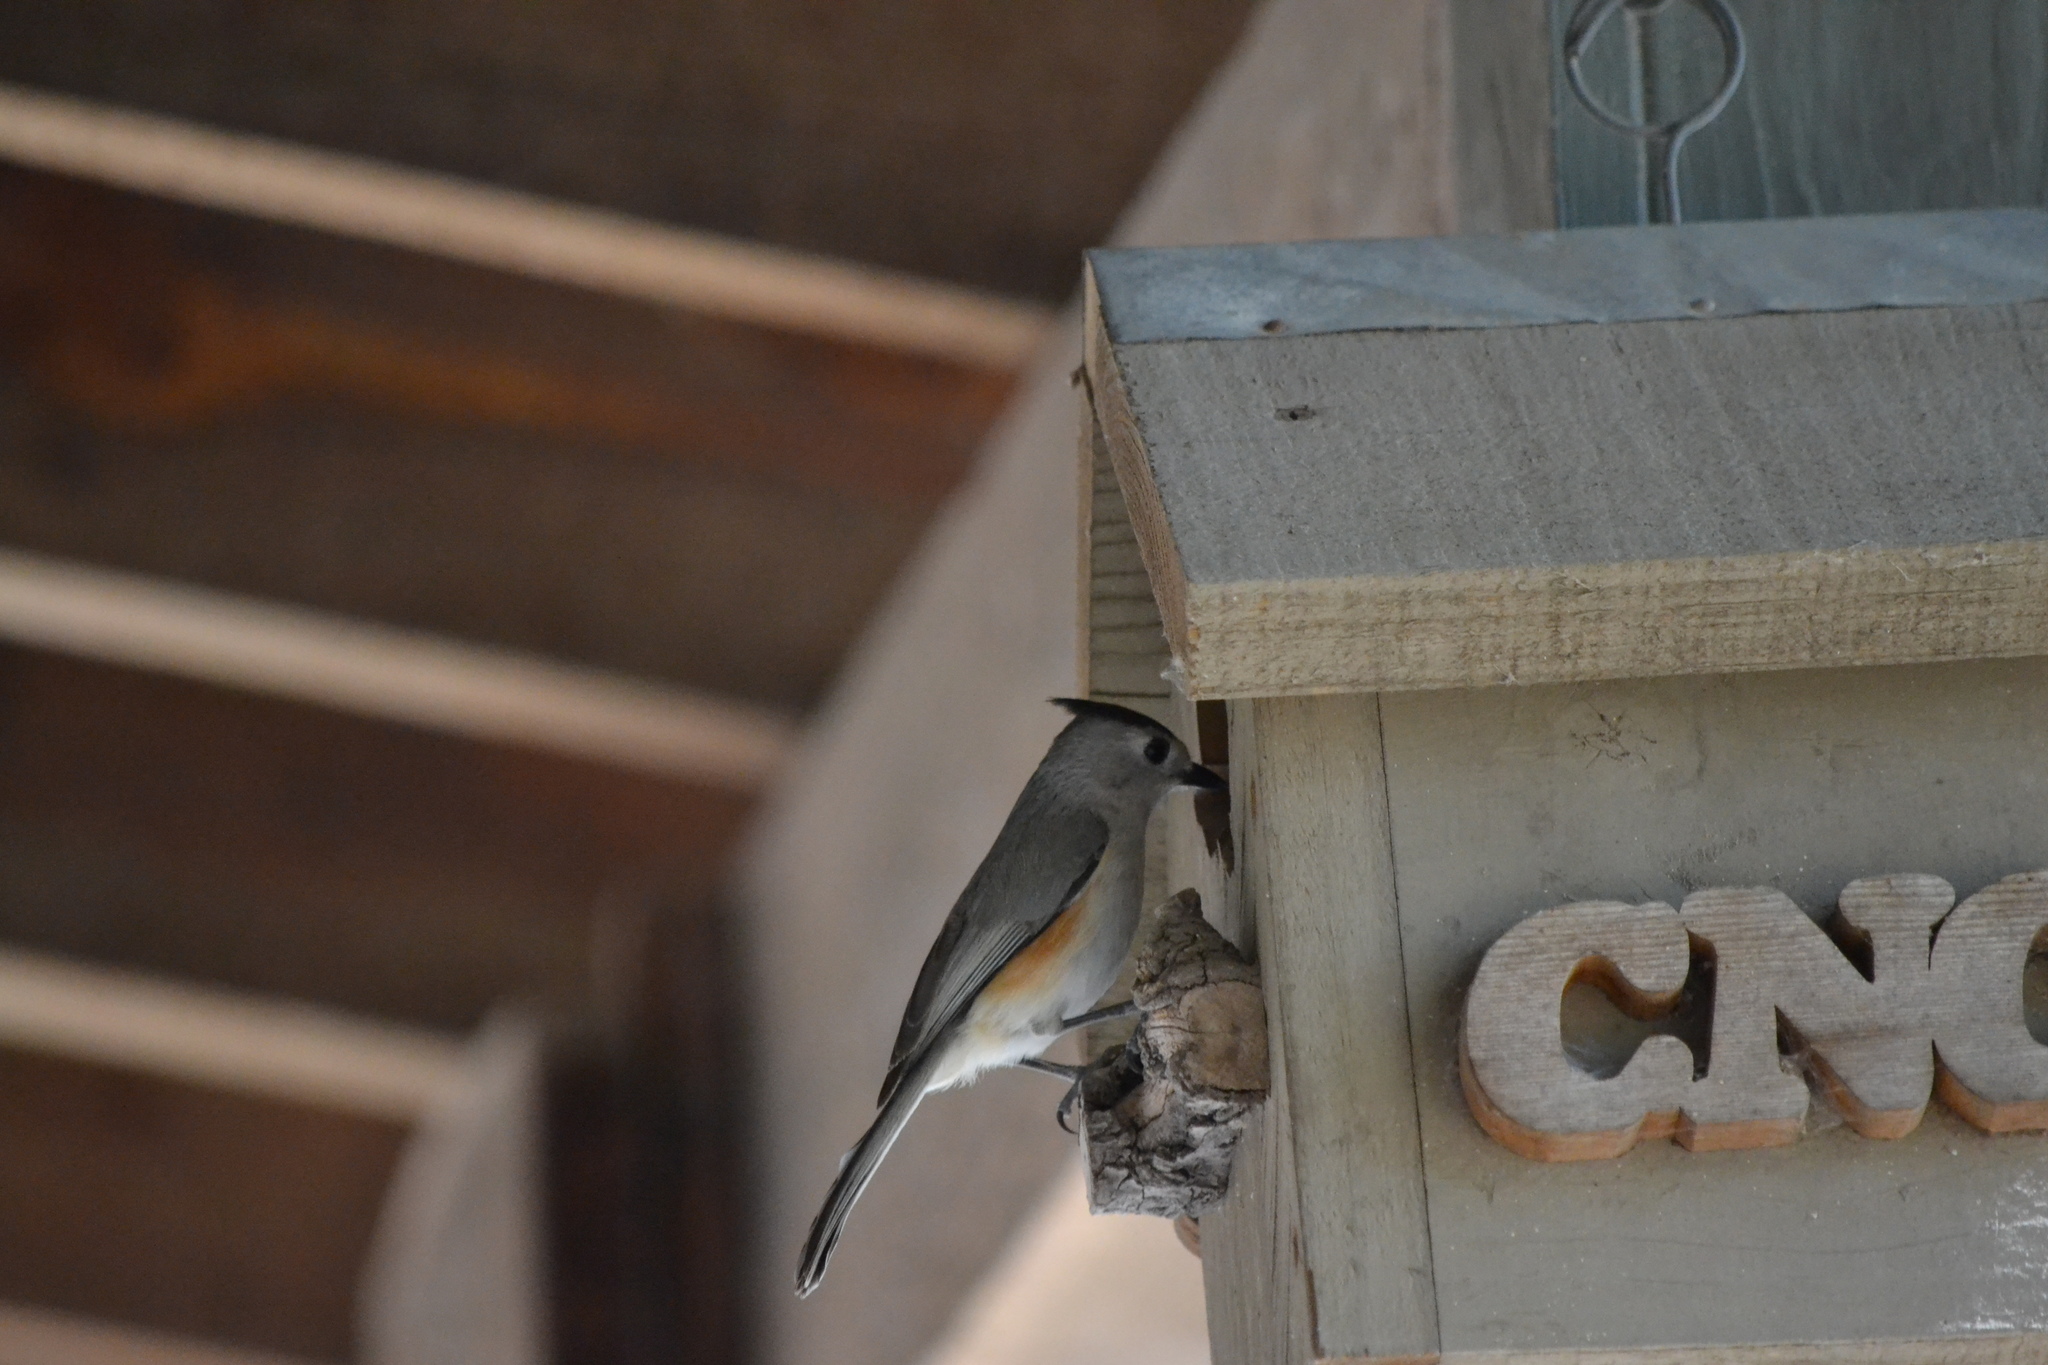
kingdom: Animalia
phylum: Chordata
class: Aves
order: Passeriformes
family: Paridae
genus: Baeolophus
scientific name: Baeolophus atricristatus
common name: Black-crested titmouse
